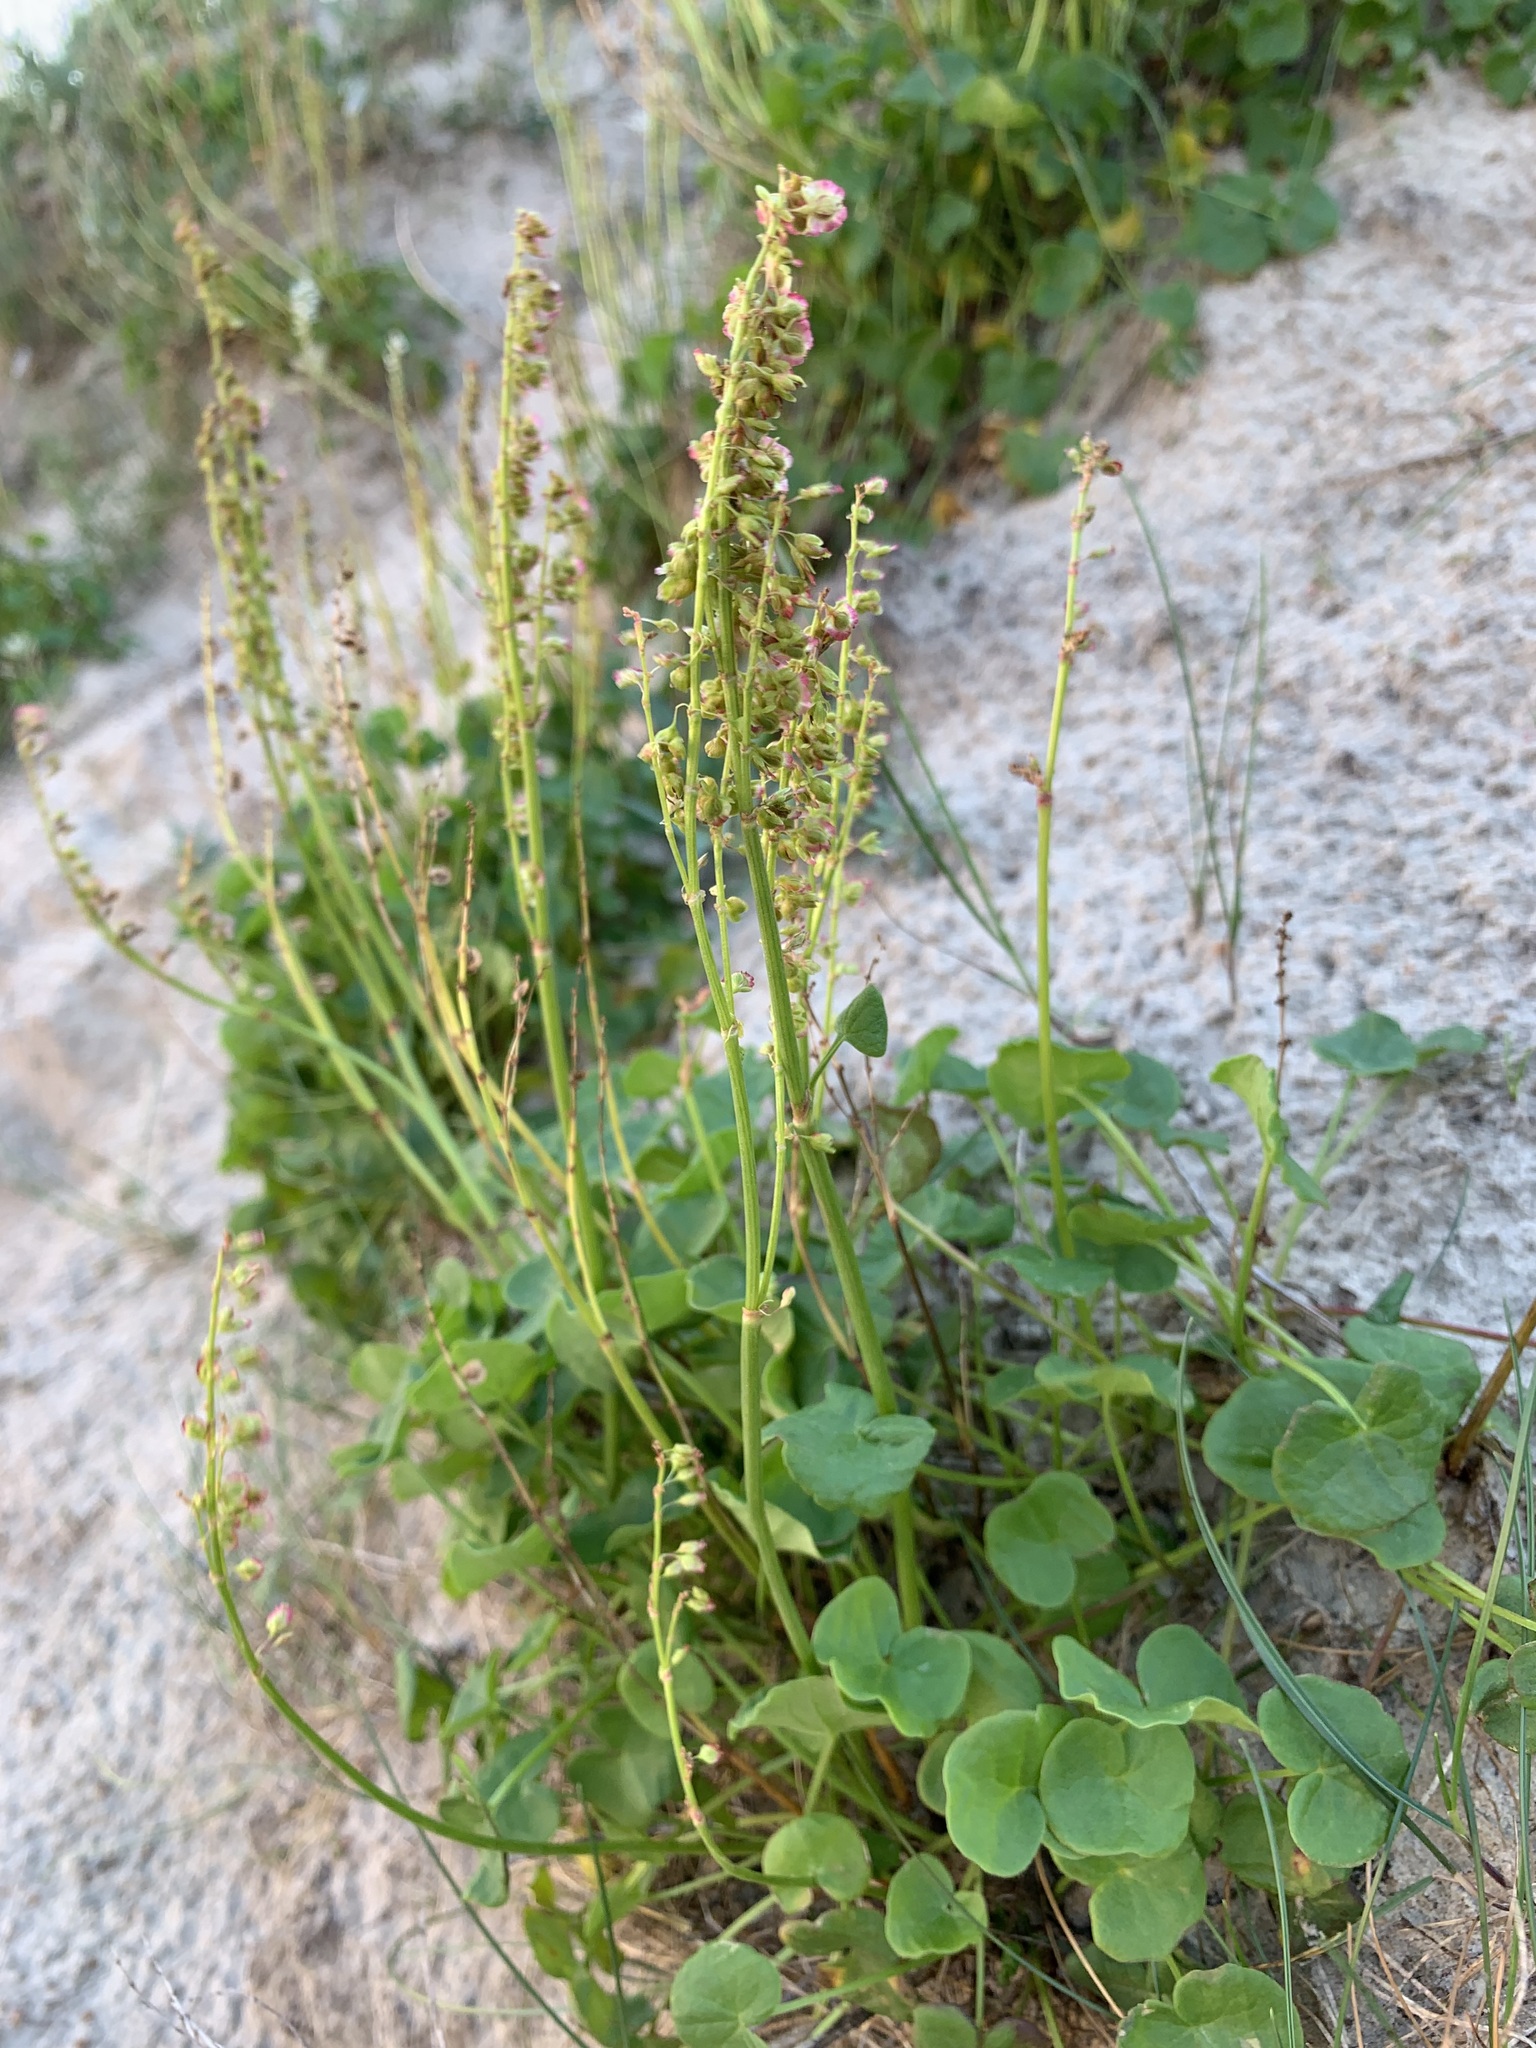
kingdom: Plantae
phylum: Tracheophyta
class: Magnoliopsida
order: Caryophyllales
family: Polygonaceae
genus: Oxyria
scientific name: Oxyria digyna
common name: Alpine mountain-sorrel
